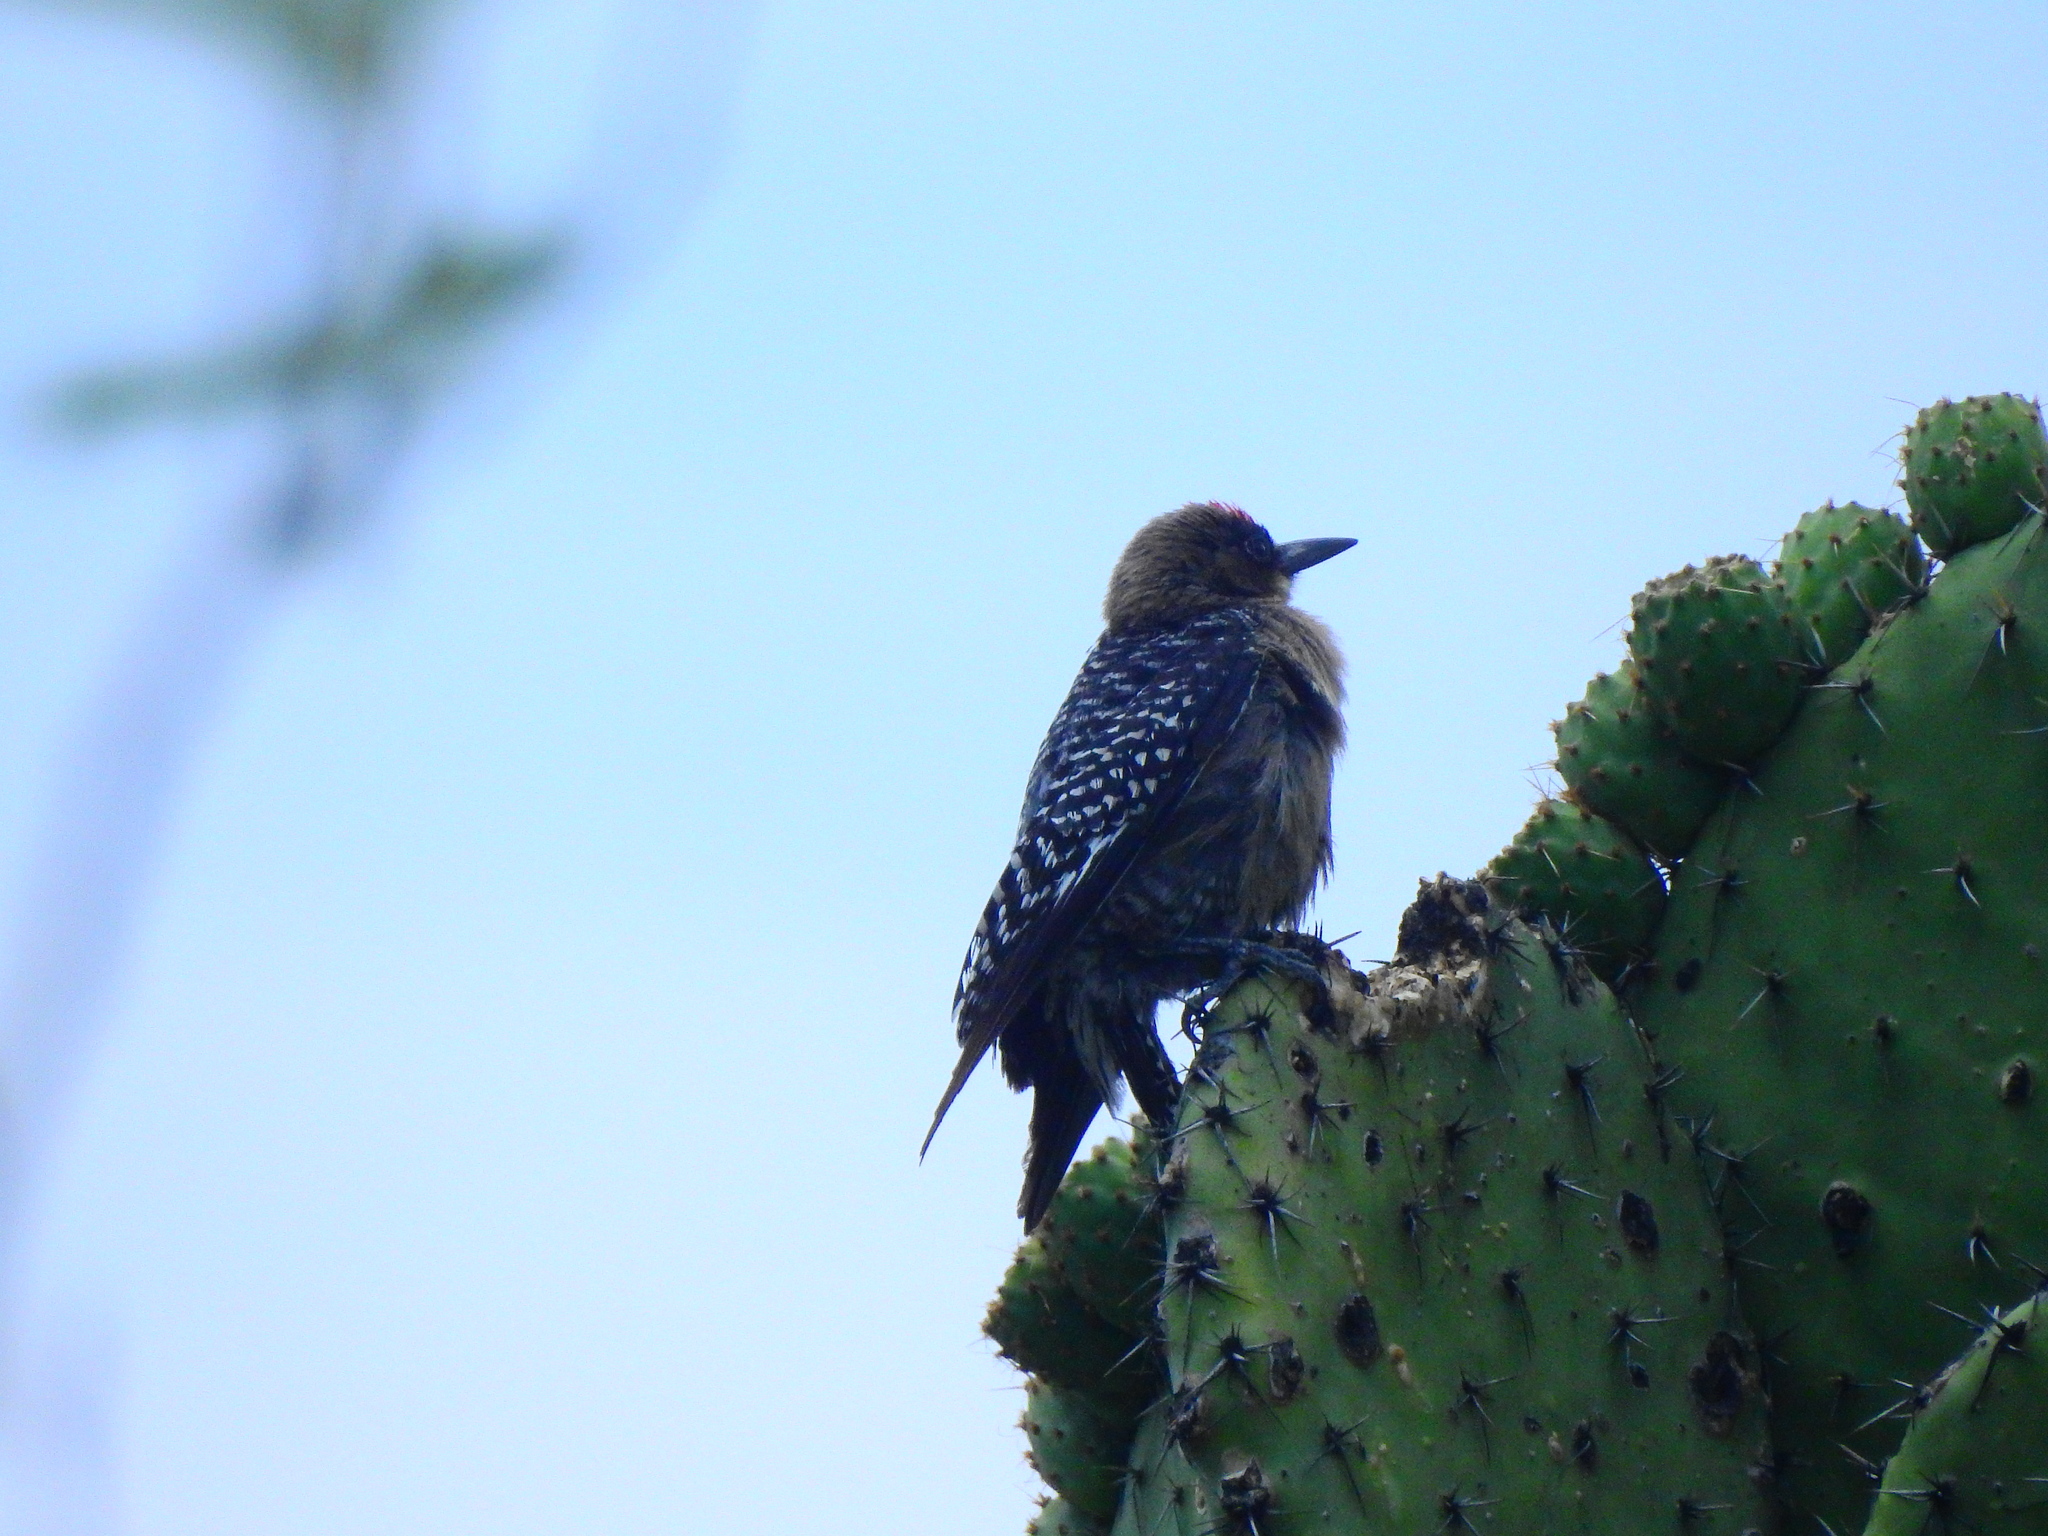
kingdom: Animalia
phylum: Chordata
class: Aves
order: Piciformes
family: Picidae
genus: Melanerpes
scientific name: Melanerpes hypopolius
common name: Grey-breasted woodpecker
